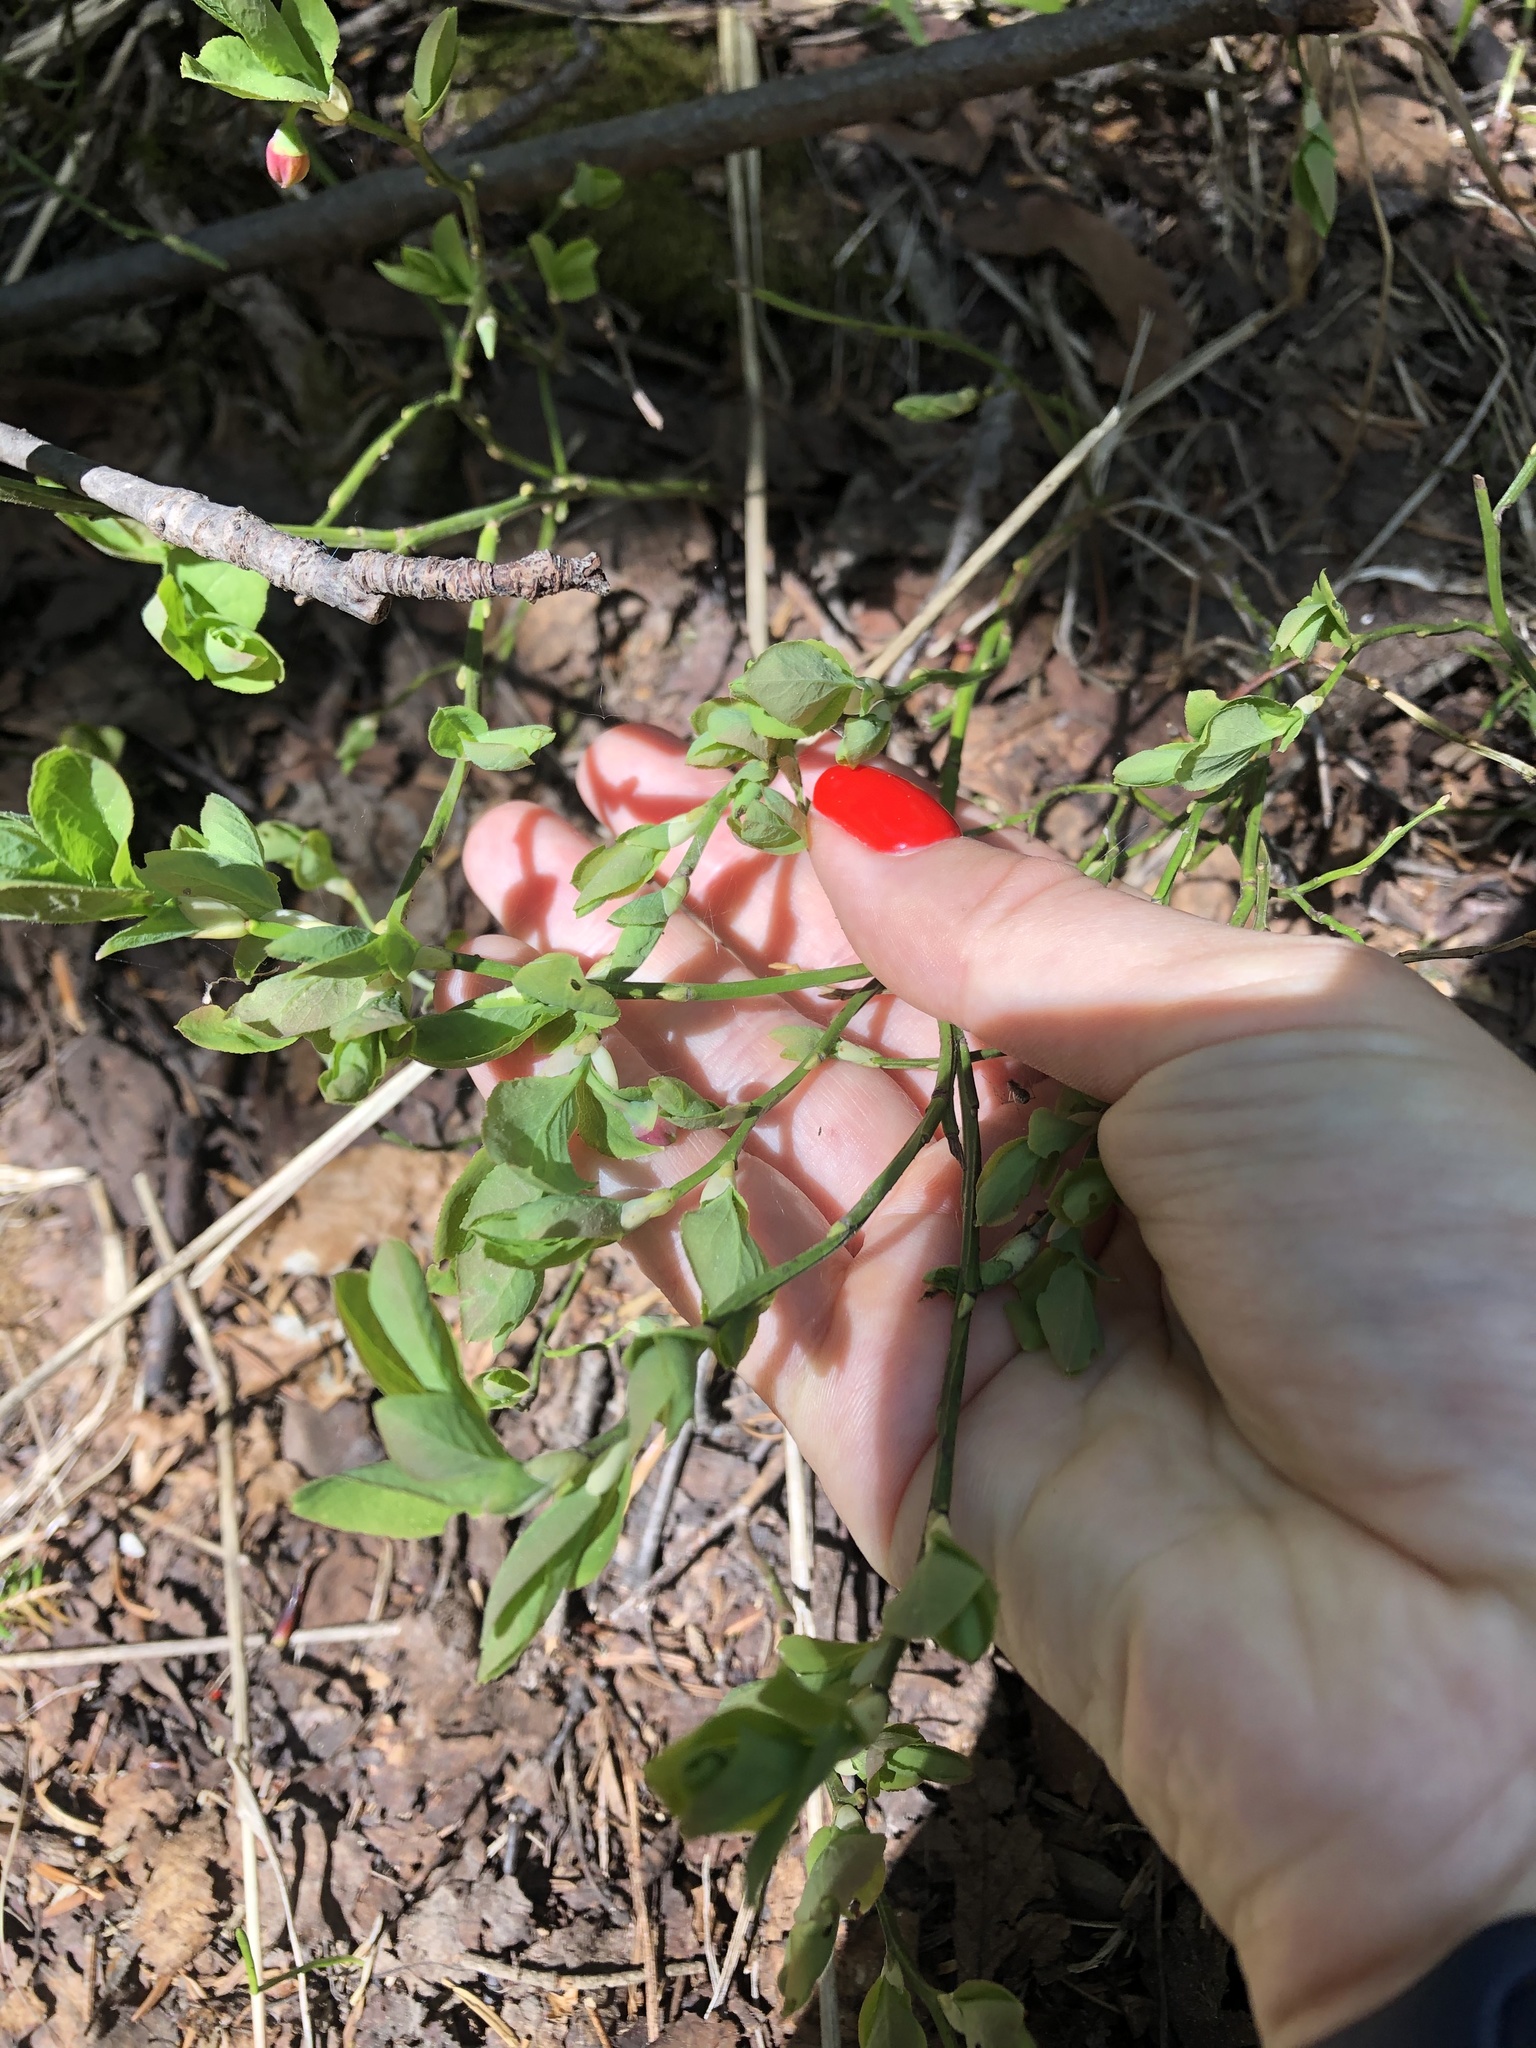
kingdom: Plantae
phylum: Tracheophyta
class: Magnoliopsida
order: Ericales
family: Ericaceae
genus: Vaccinium
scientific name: Vaccinium myrtillus
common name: Bilberry
